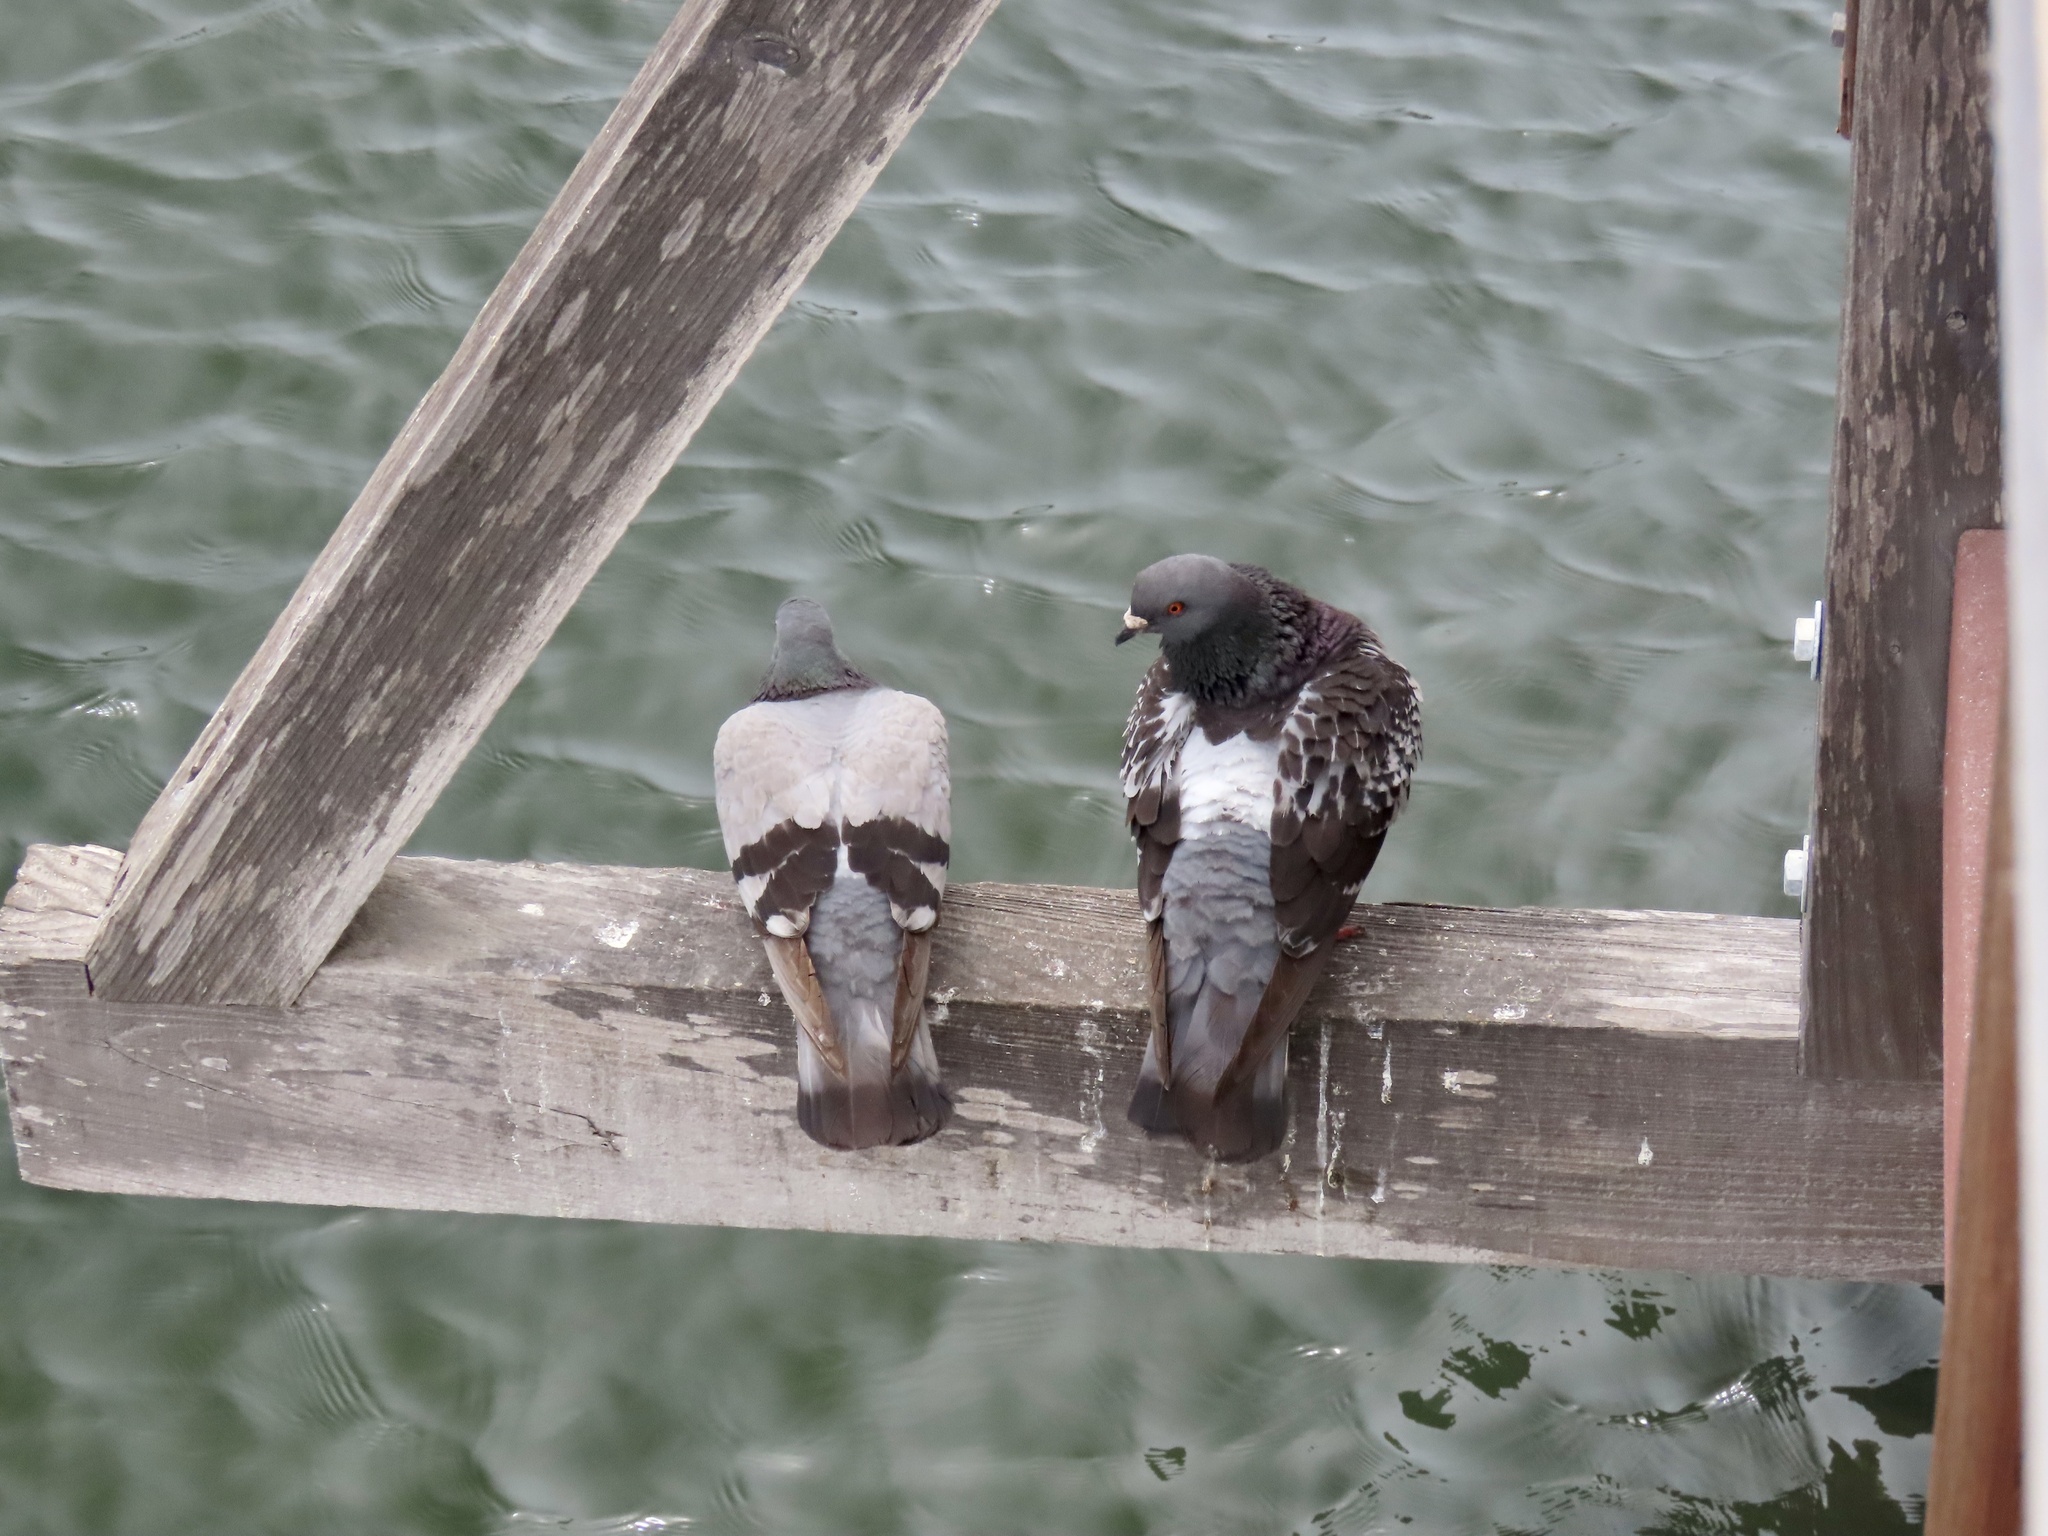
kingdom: Animalia
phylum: Chordata
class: Aves
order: Columbiformes
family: Columbidae
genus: Columba
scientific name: Columba livia
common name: Rock pigeon
